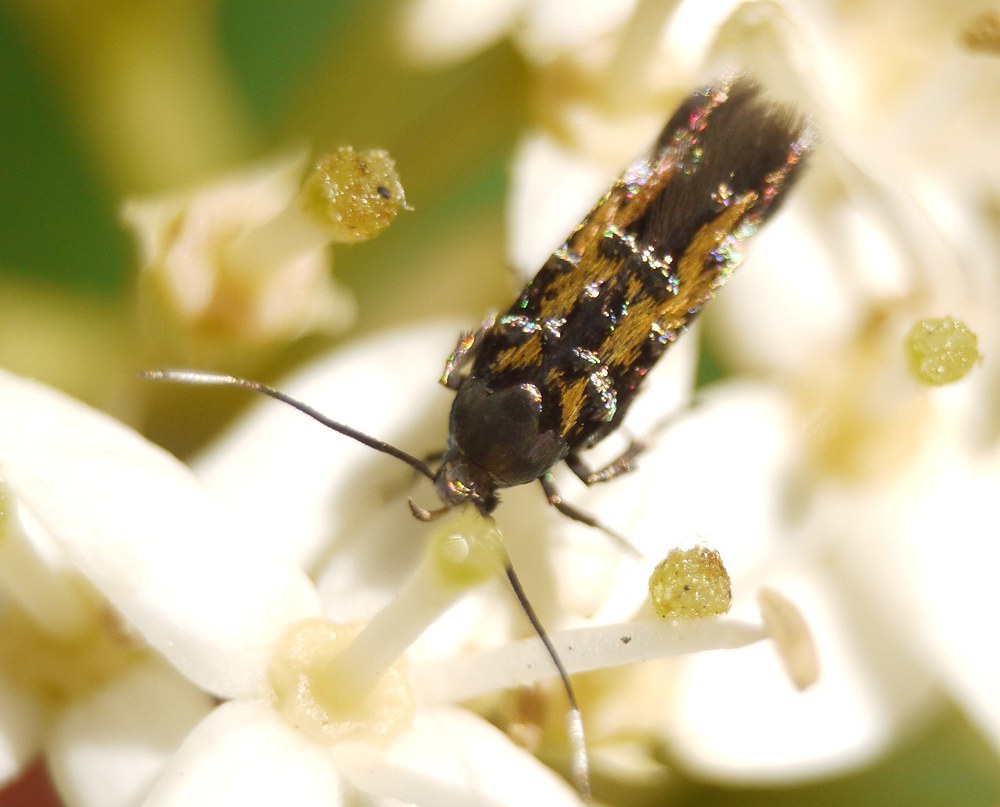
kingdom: Animalia
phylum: Arthropoda
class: Insecta
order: Lepidoptera
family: Cosmopterigidae
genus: Pancalia
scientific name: Pancalia leuwenhoekella
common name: Violet cosmet
